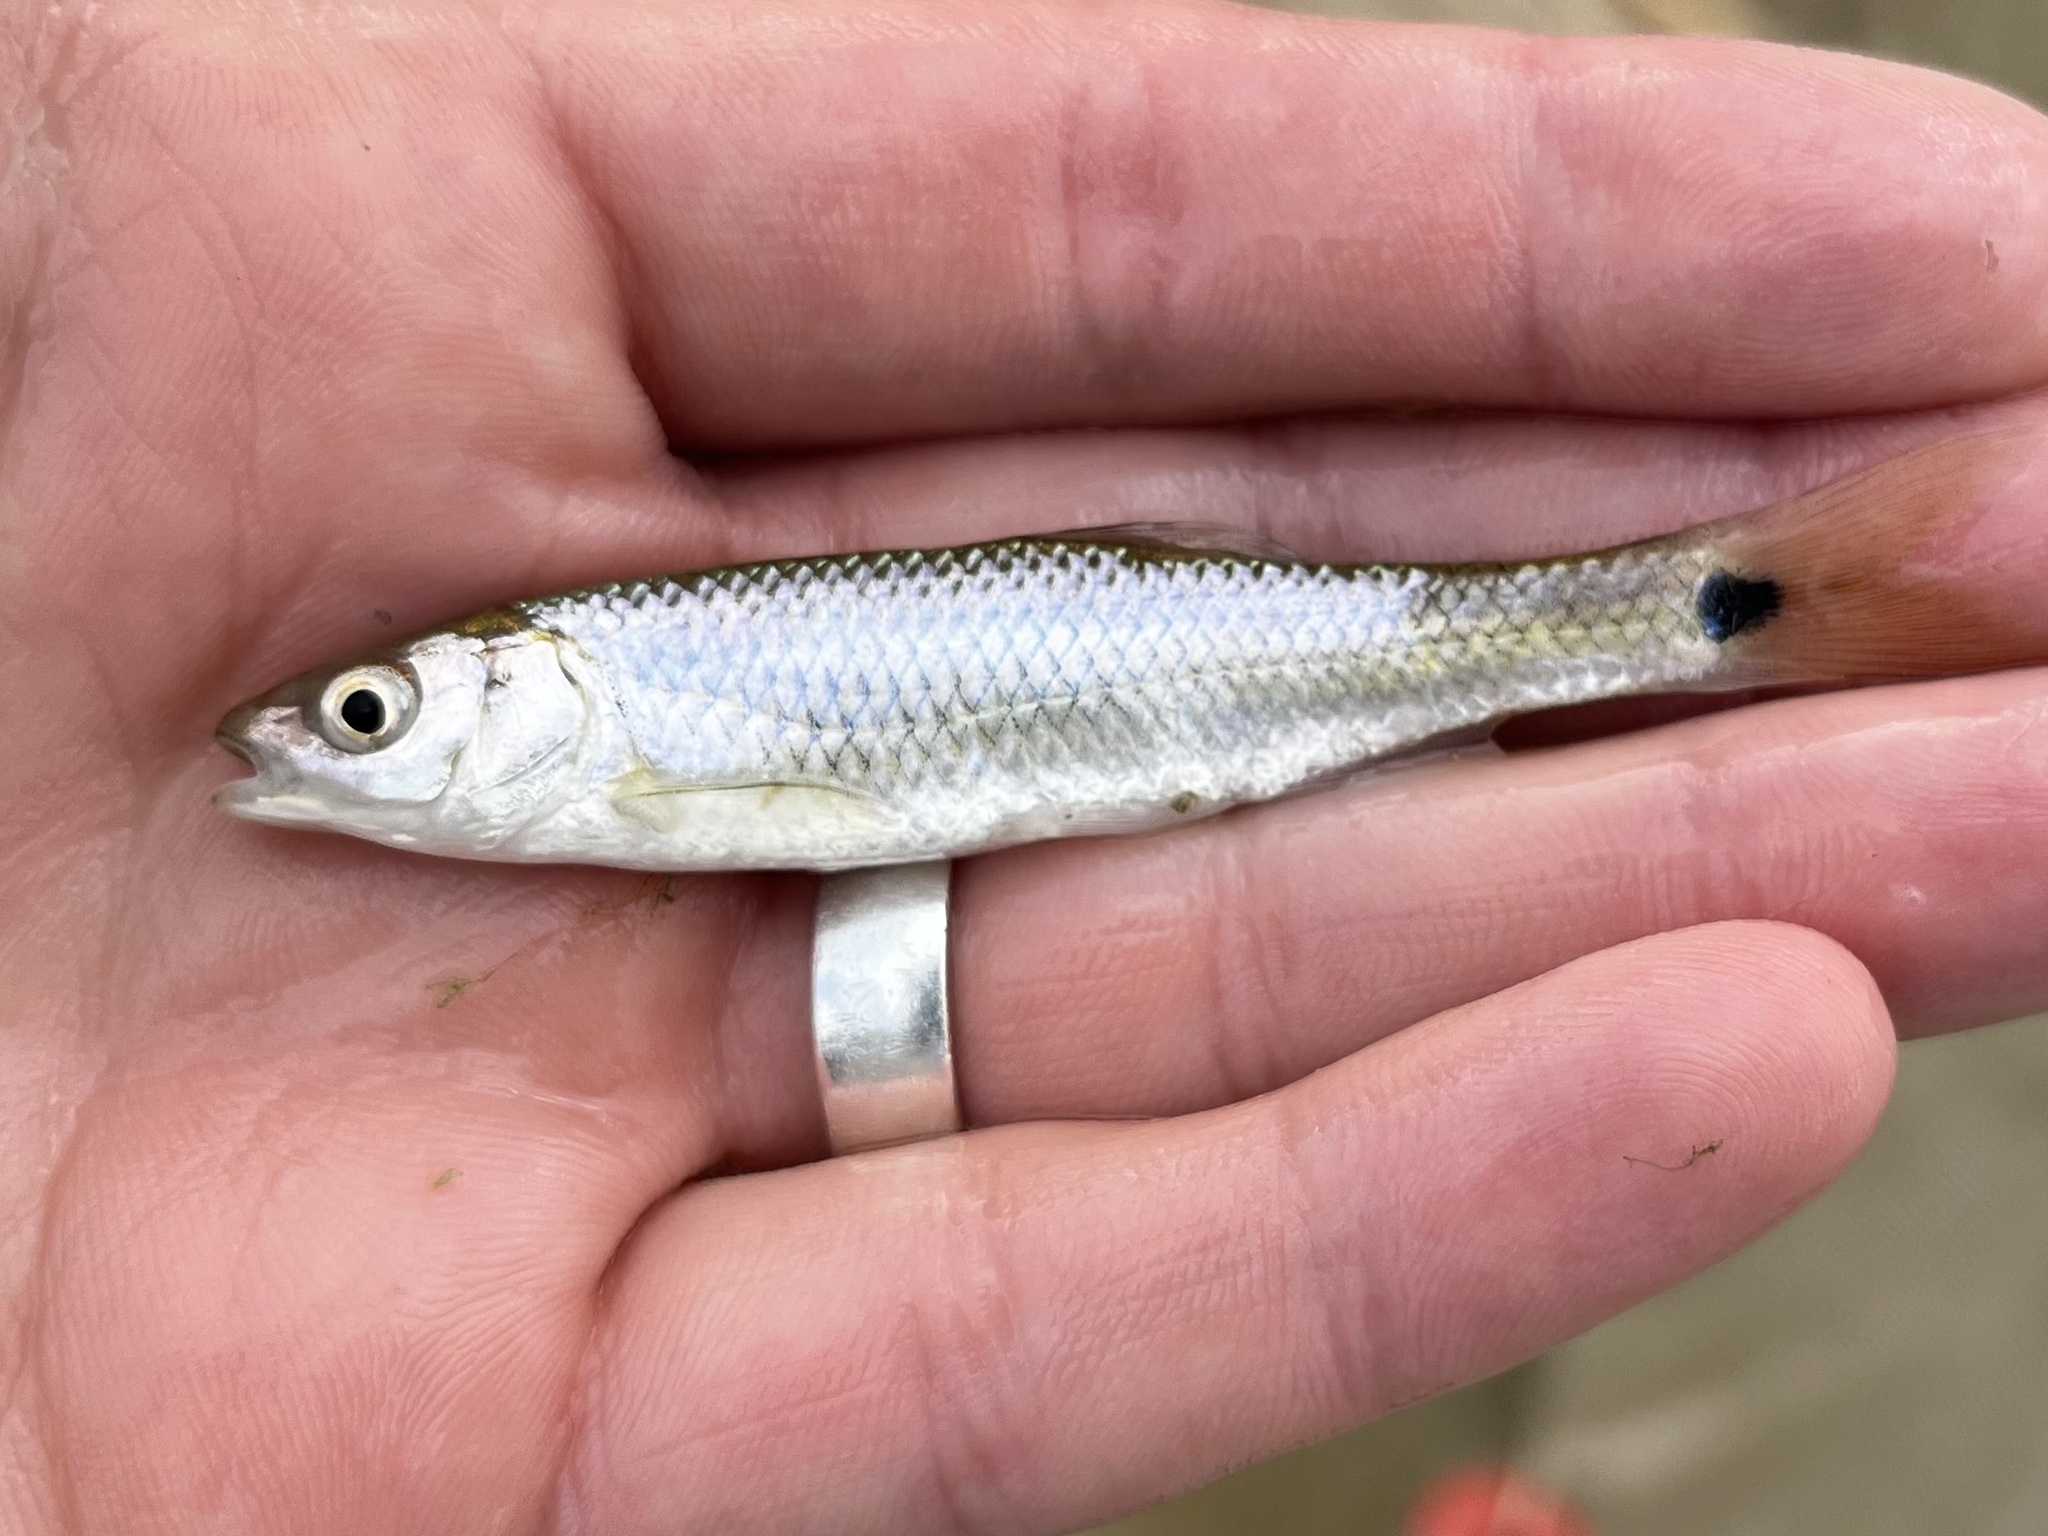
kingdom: Animalia
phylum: Chordata
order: Cypriniformes
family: Cyprinidae
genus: Cyprinella
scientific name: Cyprinella venusta
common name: Blacktail shiner
